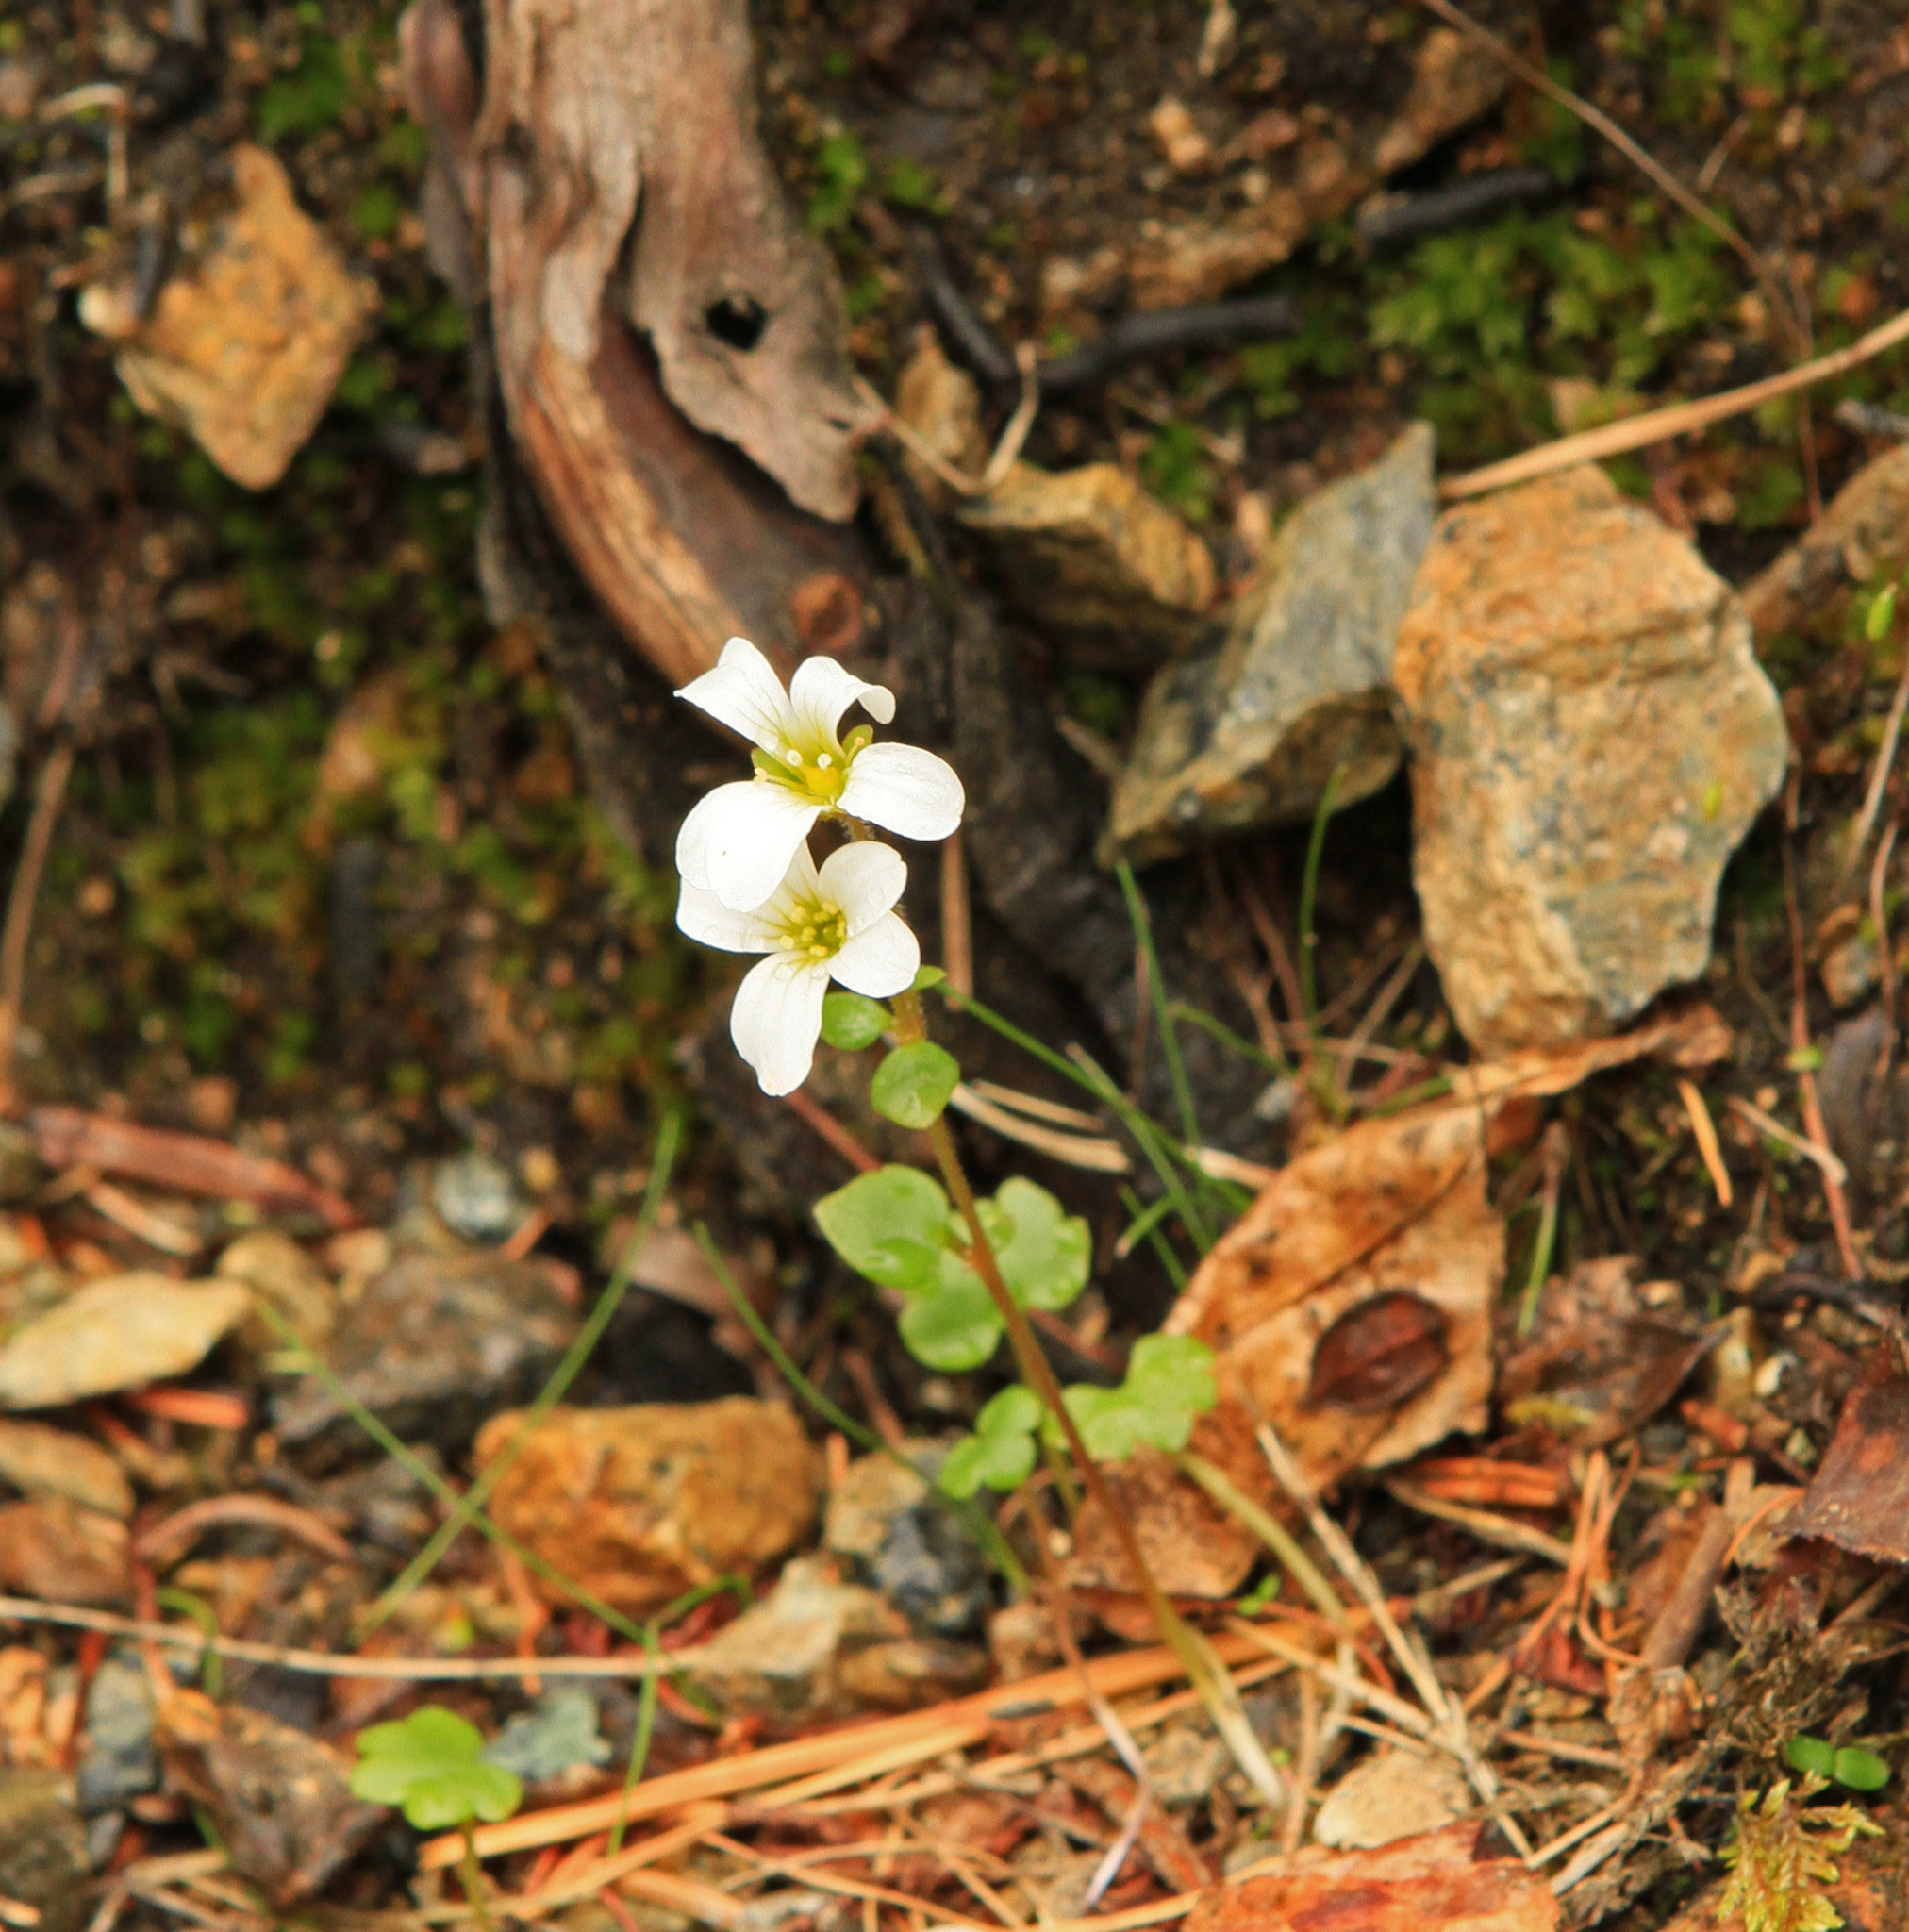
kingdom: Plantae
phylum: Tracheophyta
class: Magnoliopsida
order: Saxifragales
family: Saxifragaceae
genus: Saxifraga
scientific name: Saxifraga sibirica
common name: Siberian saxifrage
